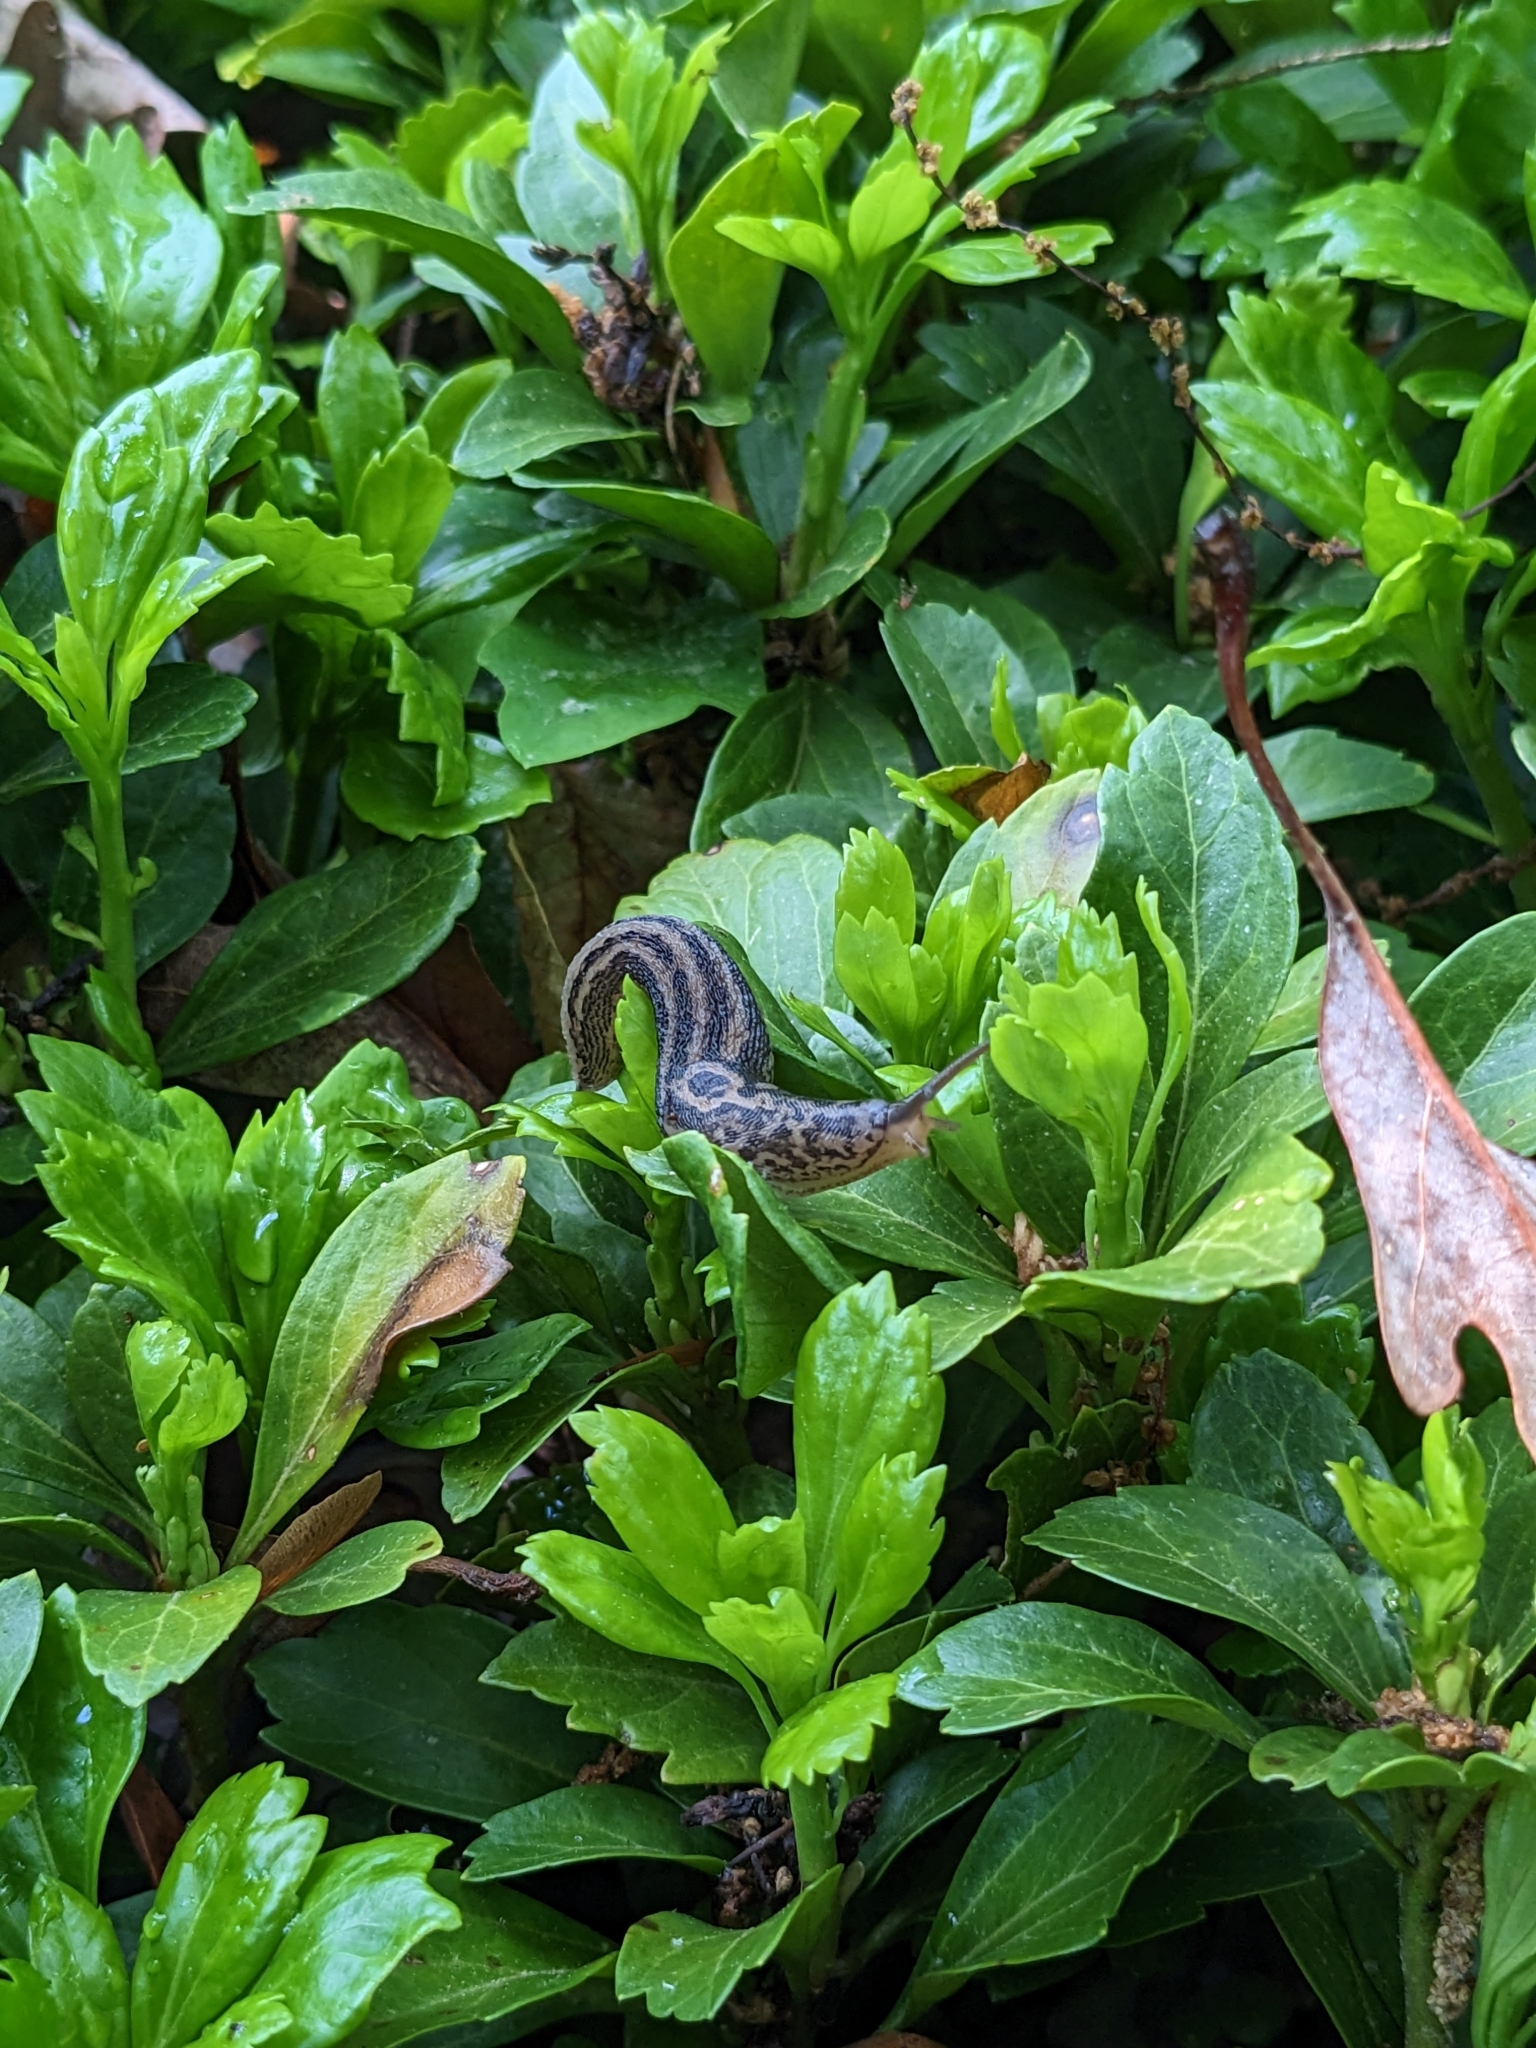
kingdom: Animalia
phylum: Mollusca
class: Gastropoda
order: Stylommatophora
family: Limacidae
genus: Limax
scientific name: Limax maximus
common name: Great grey slug
